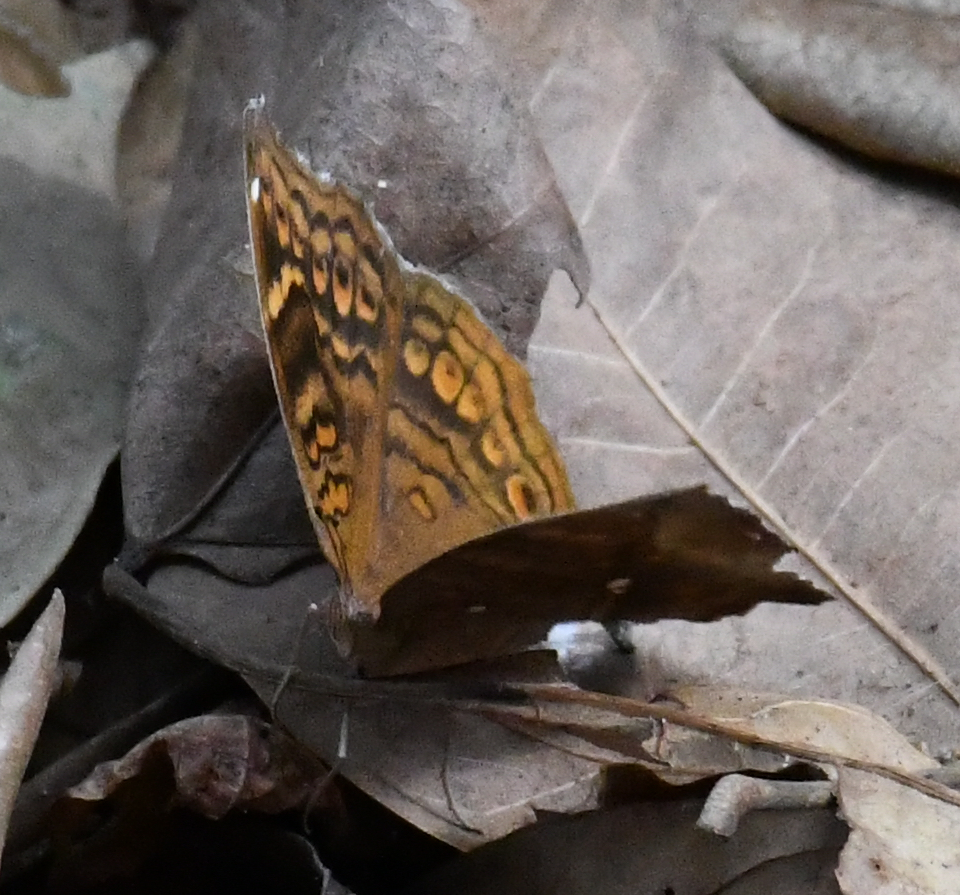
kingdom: Animalia
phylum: Arthropoda
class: Insecta
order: Lepidoptera
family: Nymphalidae
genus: Junonia
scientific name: Junonia chorimene
